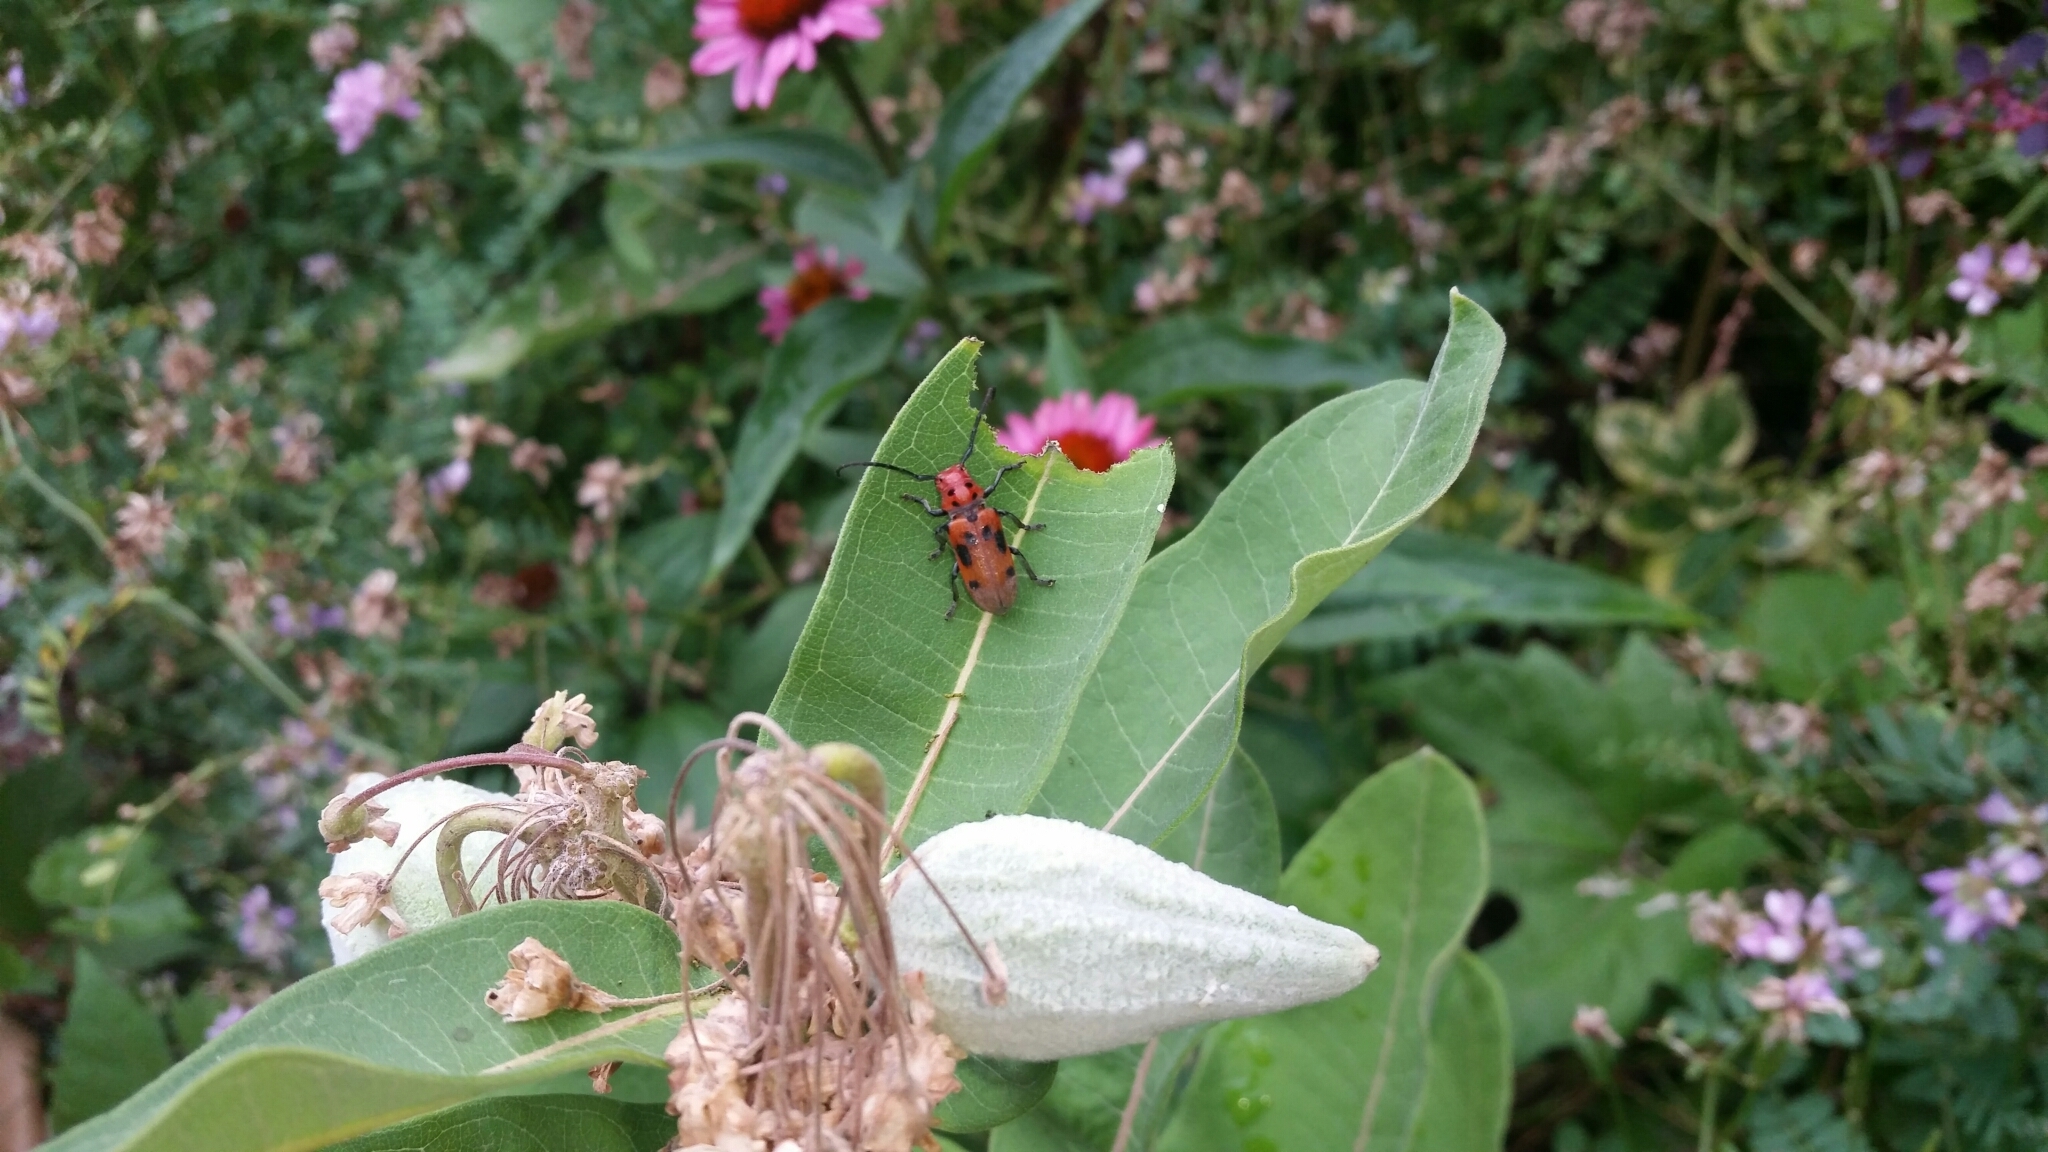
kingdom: Animalia
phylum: Arthropoda
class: Insecta
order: Coleoptera
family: Cerambycidae
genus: Tetraopes
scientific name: Tetraopes tetrophthalmus
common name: Red milkweed beetle
